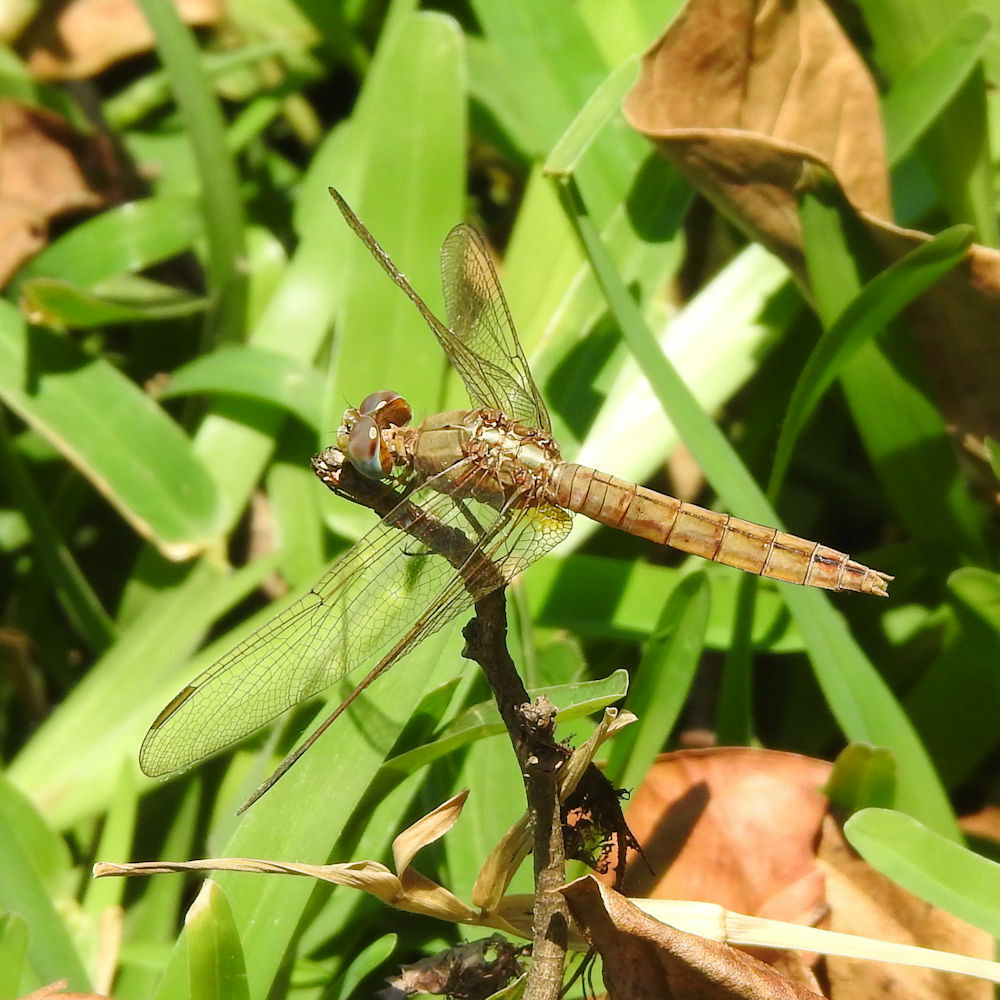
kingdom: Animalia
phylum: Arthropoda
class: Insecta
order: Odonata
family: Libellulidae
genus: Crocothemis
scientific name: Crocothemis erythraea
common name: Scarlet dragonfly
